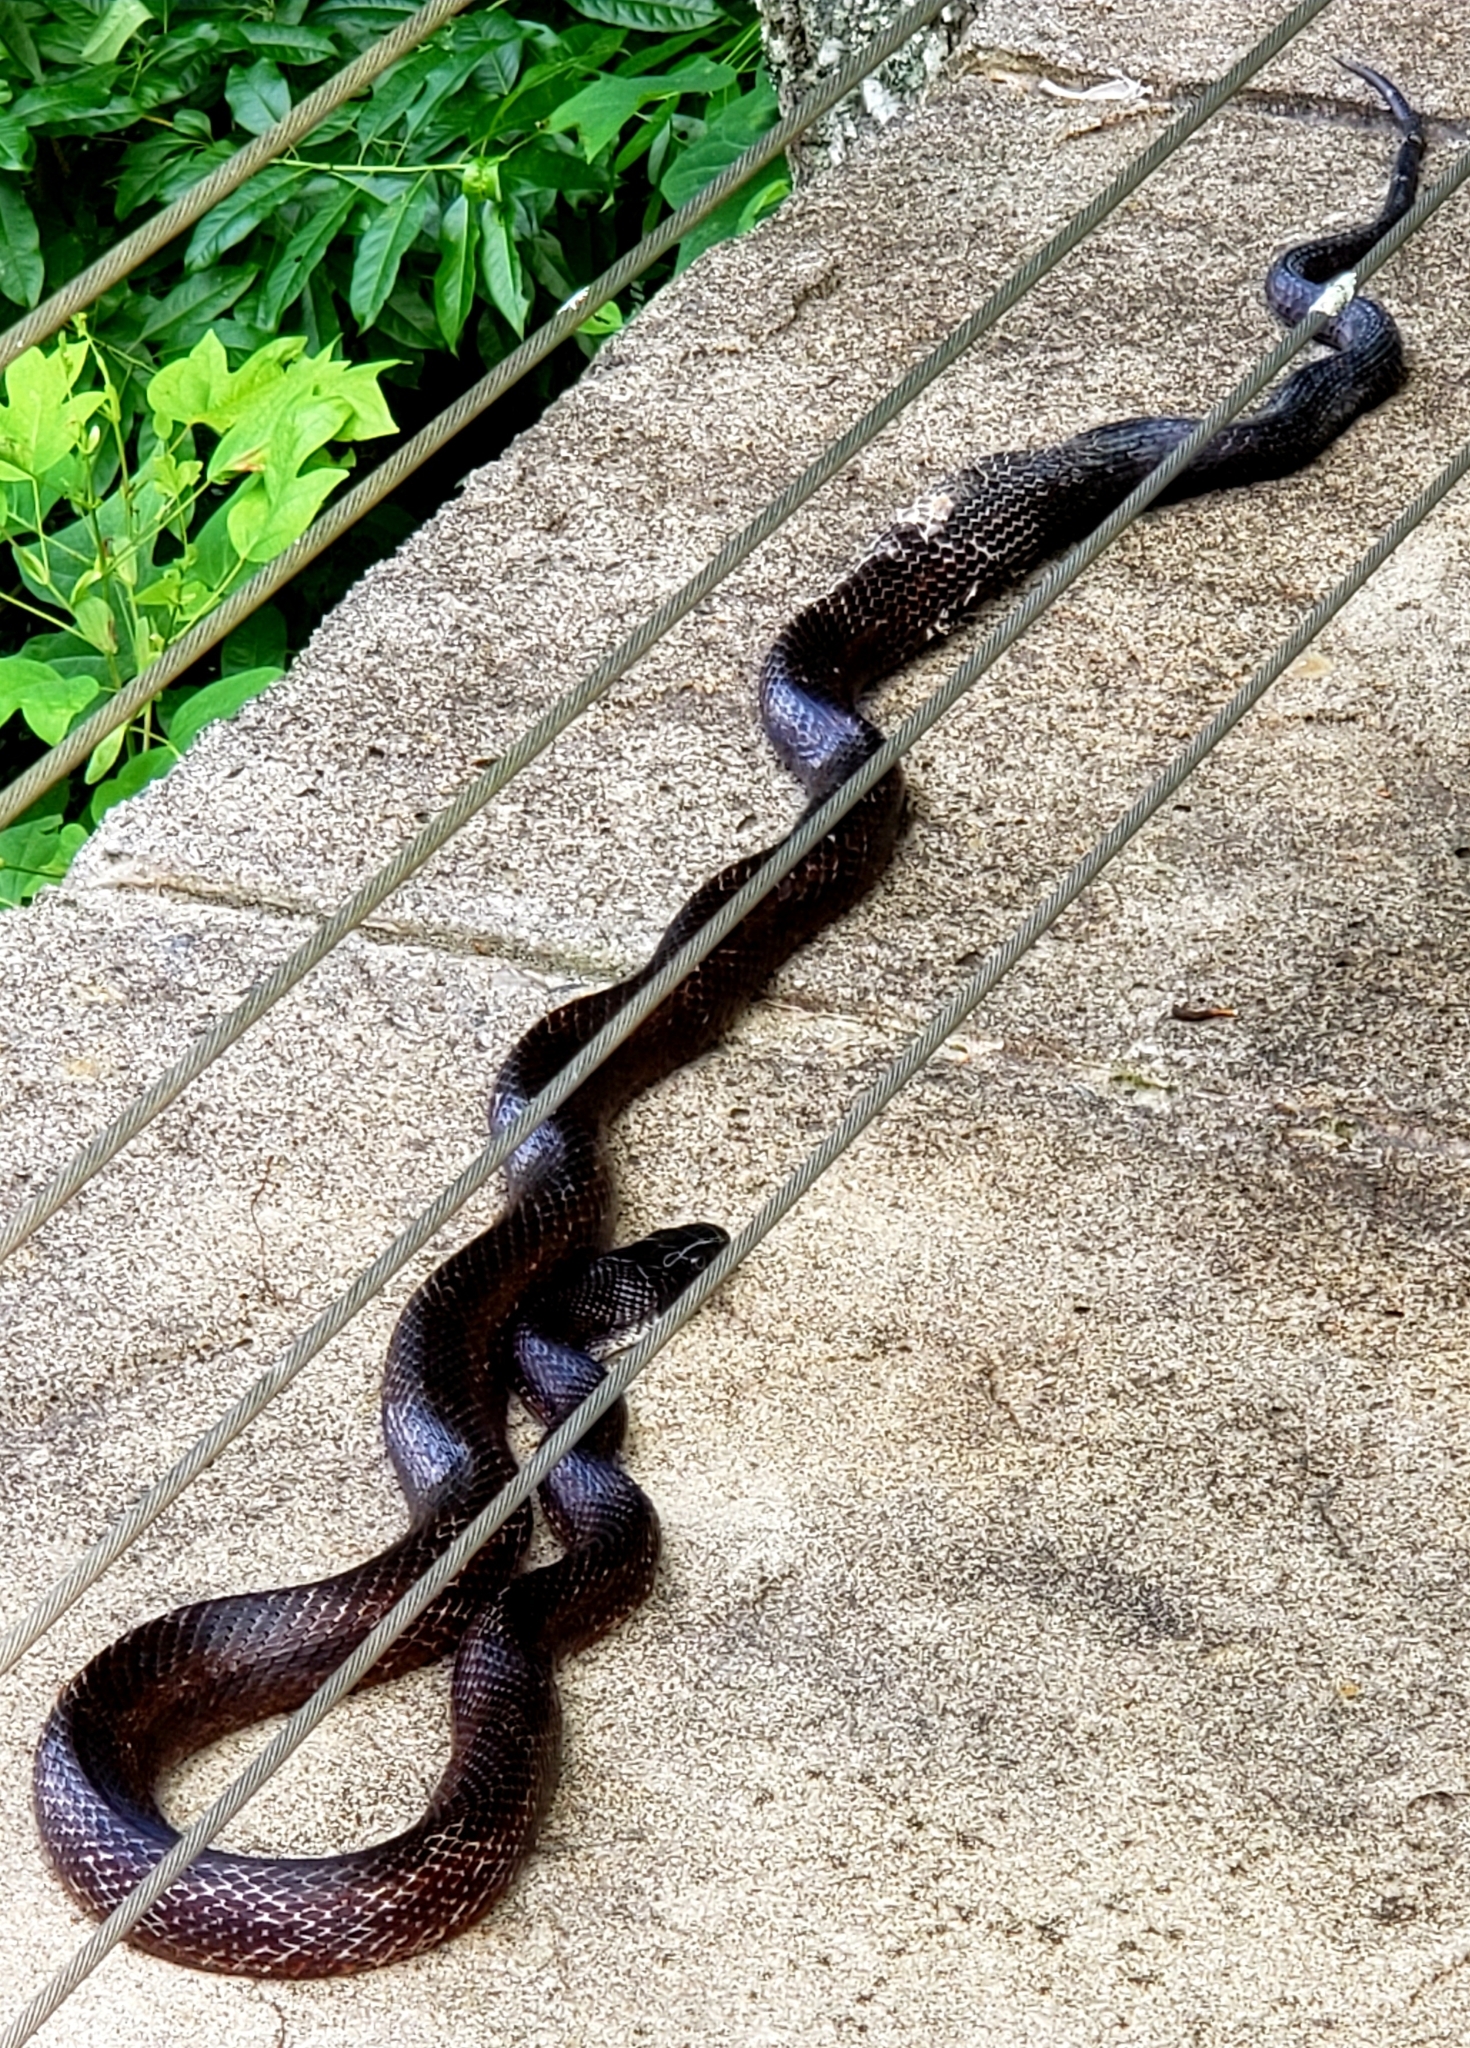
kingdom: Animalia
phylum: Chordata
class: Squamata
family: Colubridae
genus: Pantherophis
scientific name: Pantherophis alleghaniensis
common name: Eastern rat snake
